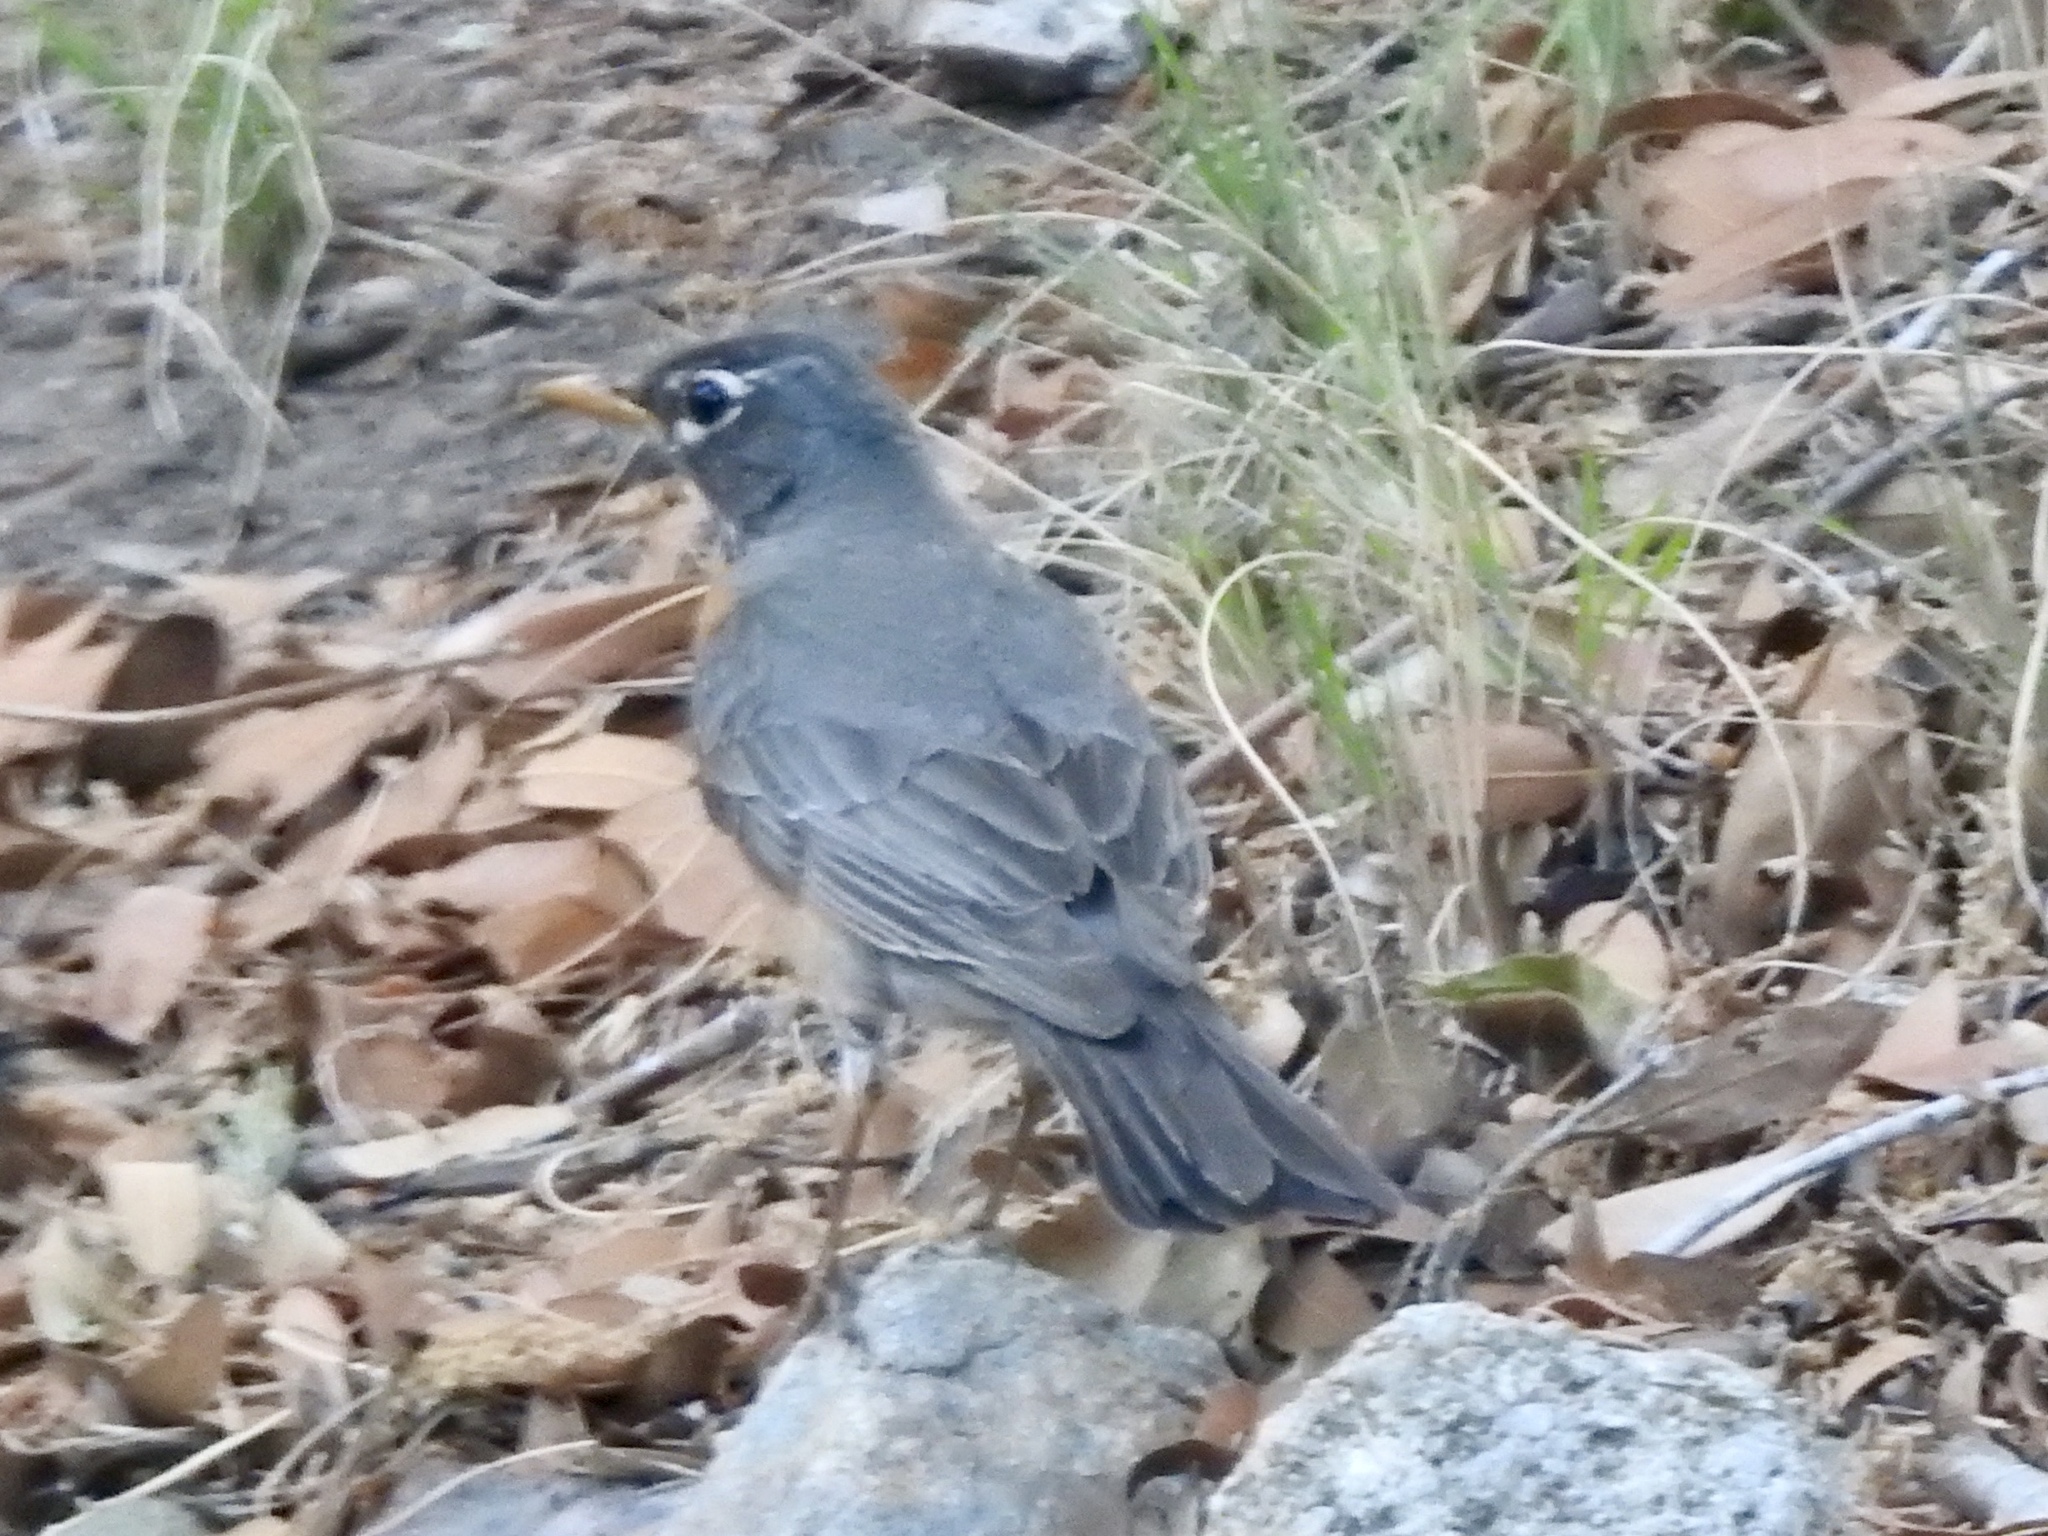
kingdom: Animalia
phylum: Chordata
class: Aves
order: Passeriformes
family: Turdidae
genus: Turdus
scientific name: Turdus migratorius
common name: American robin
